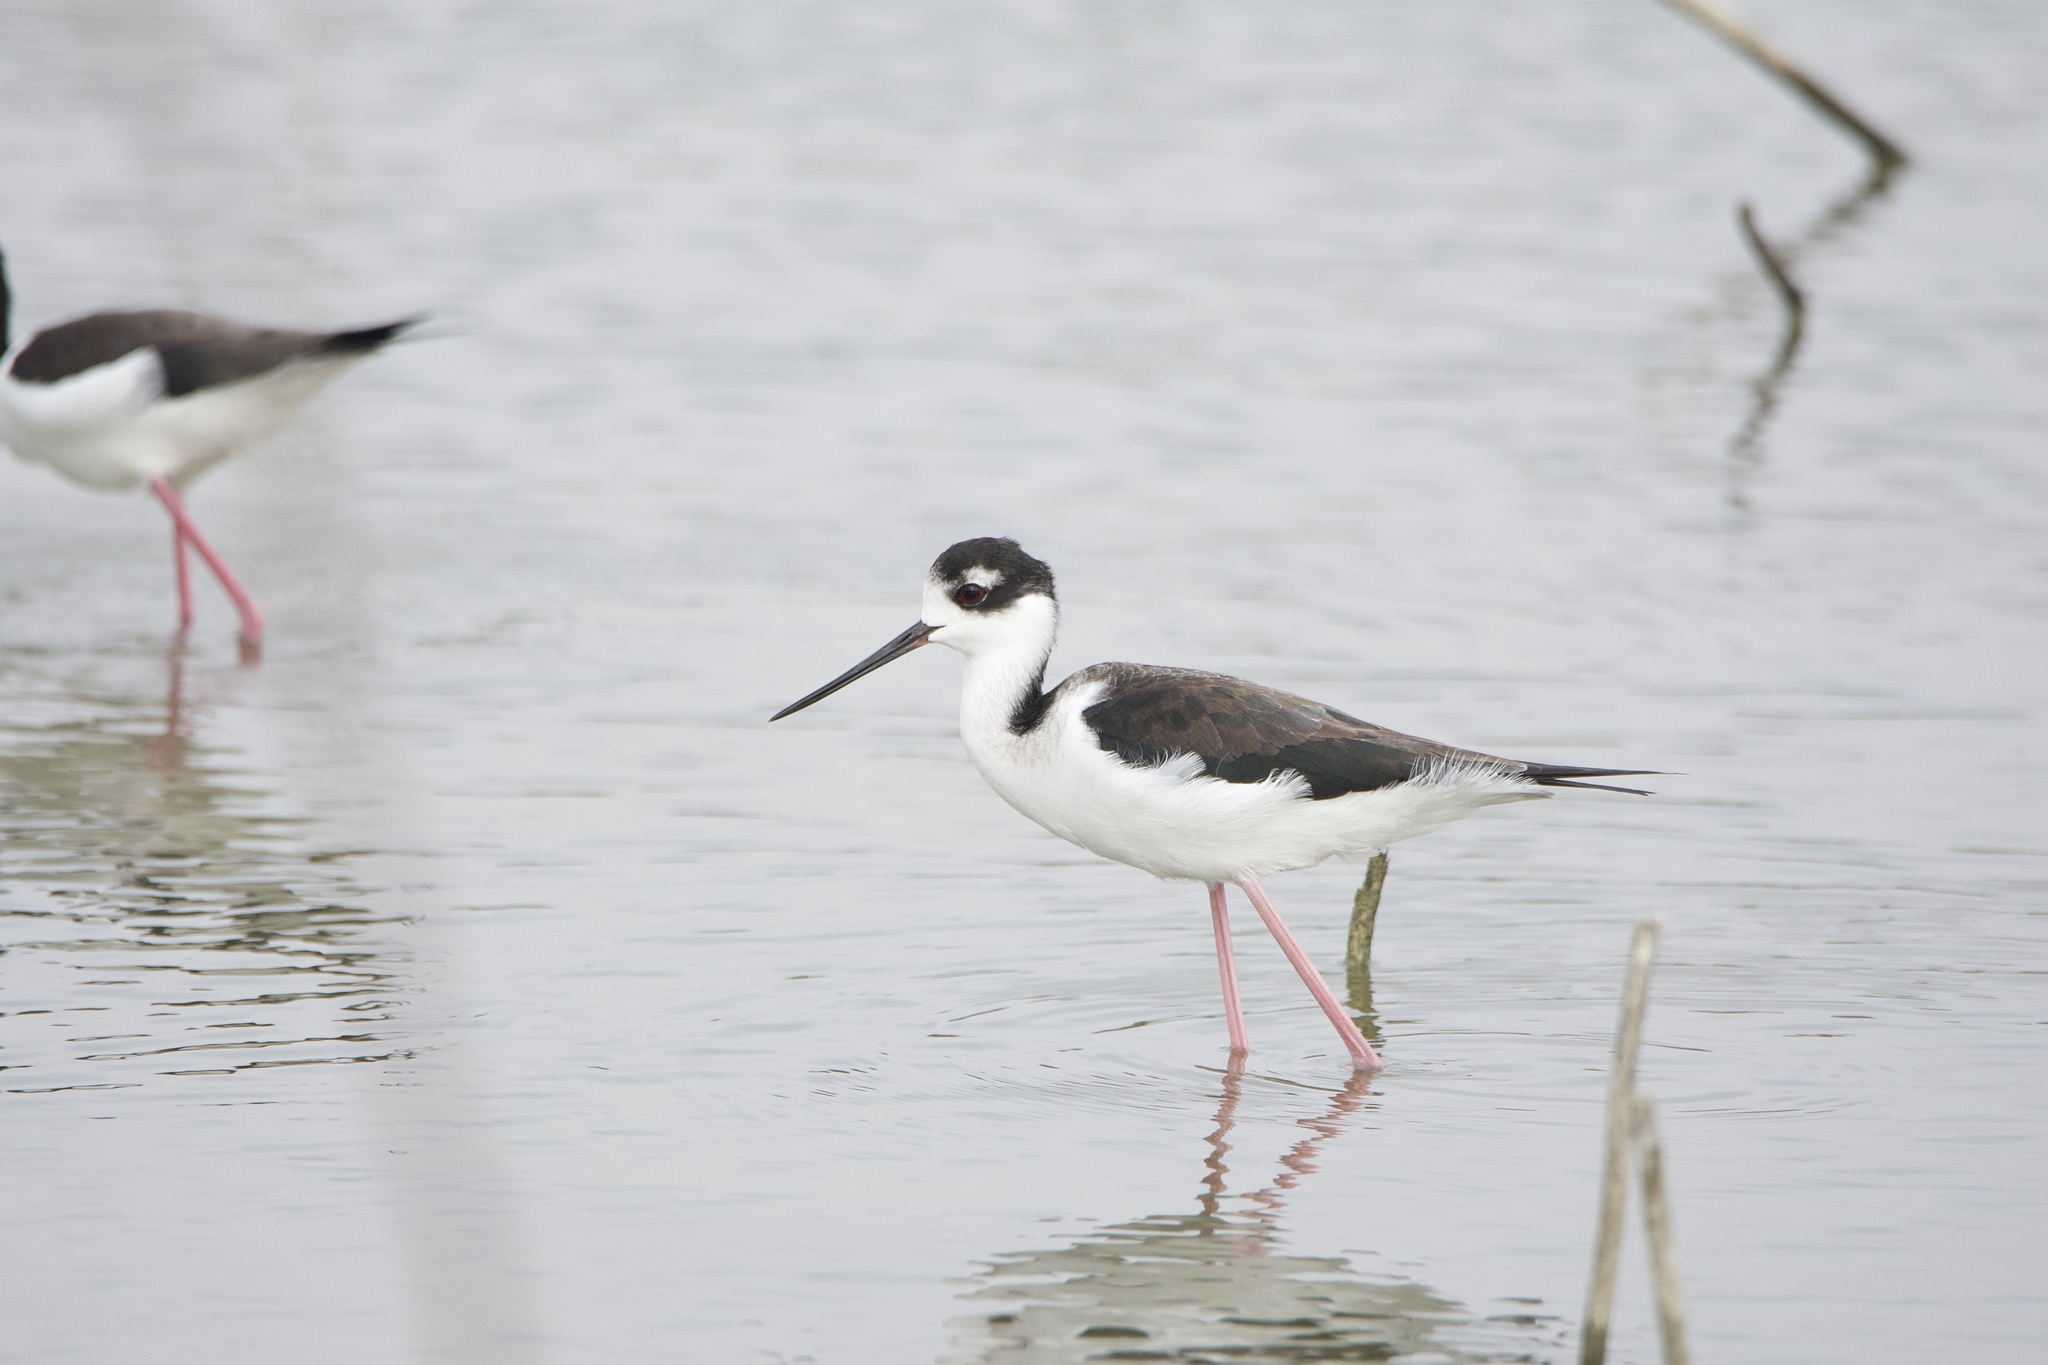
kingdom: Animalia
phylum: Chordata
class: Aves
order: Charadriiformes
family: Recurvirostridae
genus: Himantopus
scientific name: Himantopus mexicanus
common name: Black-necked stilt
